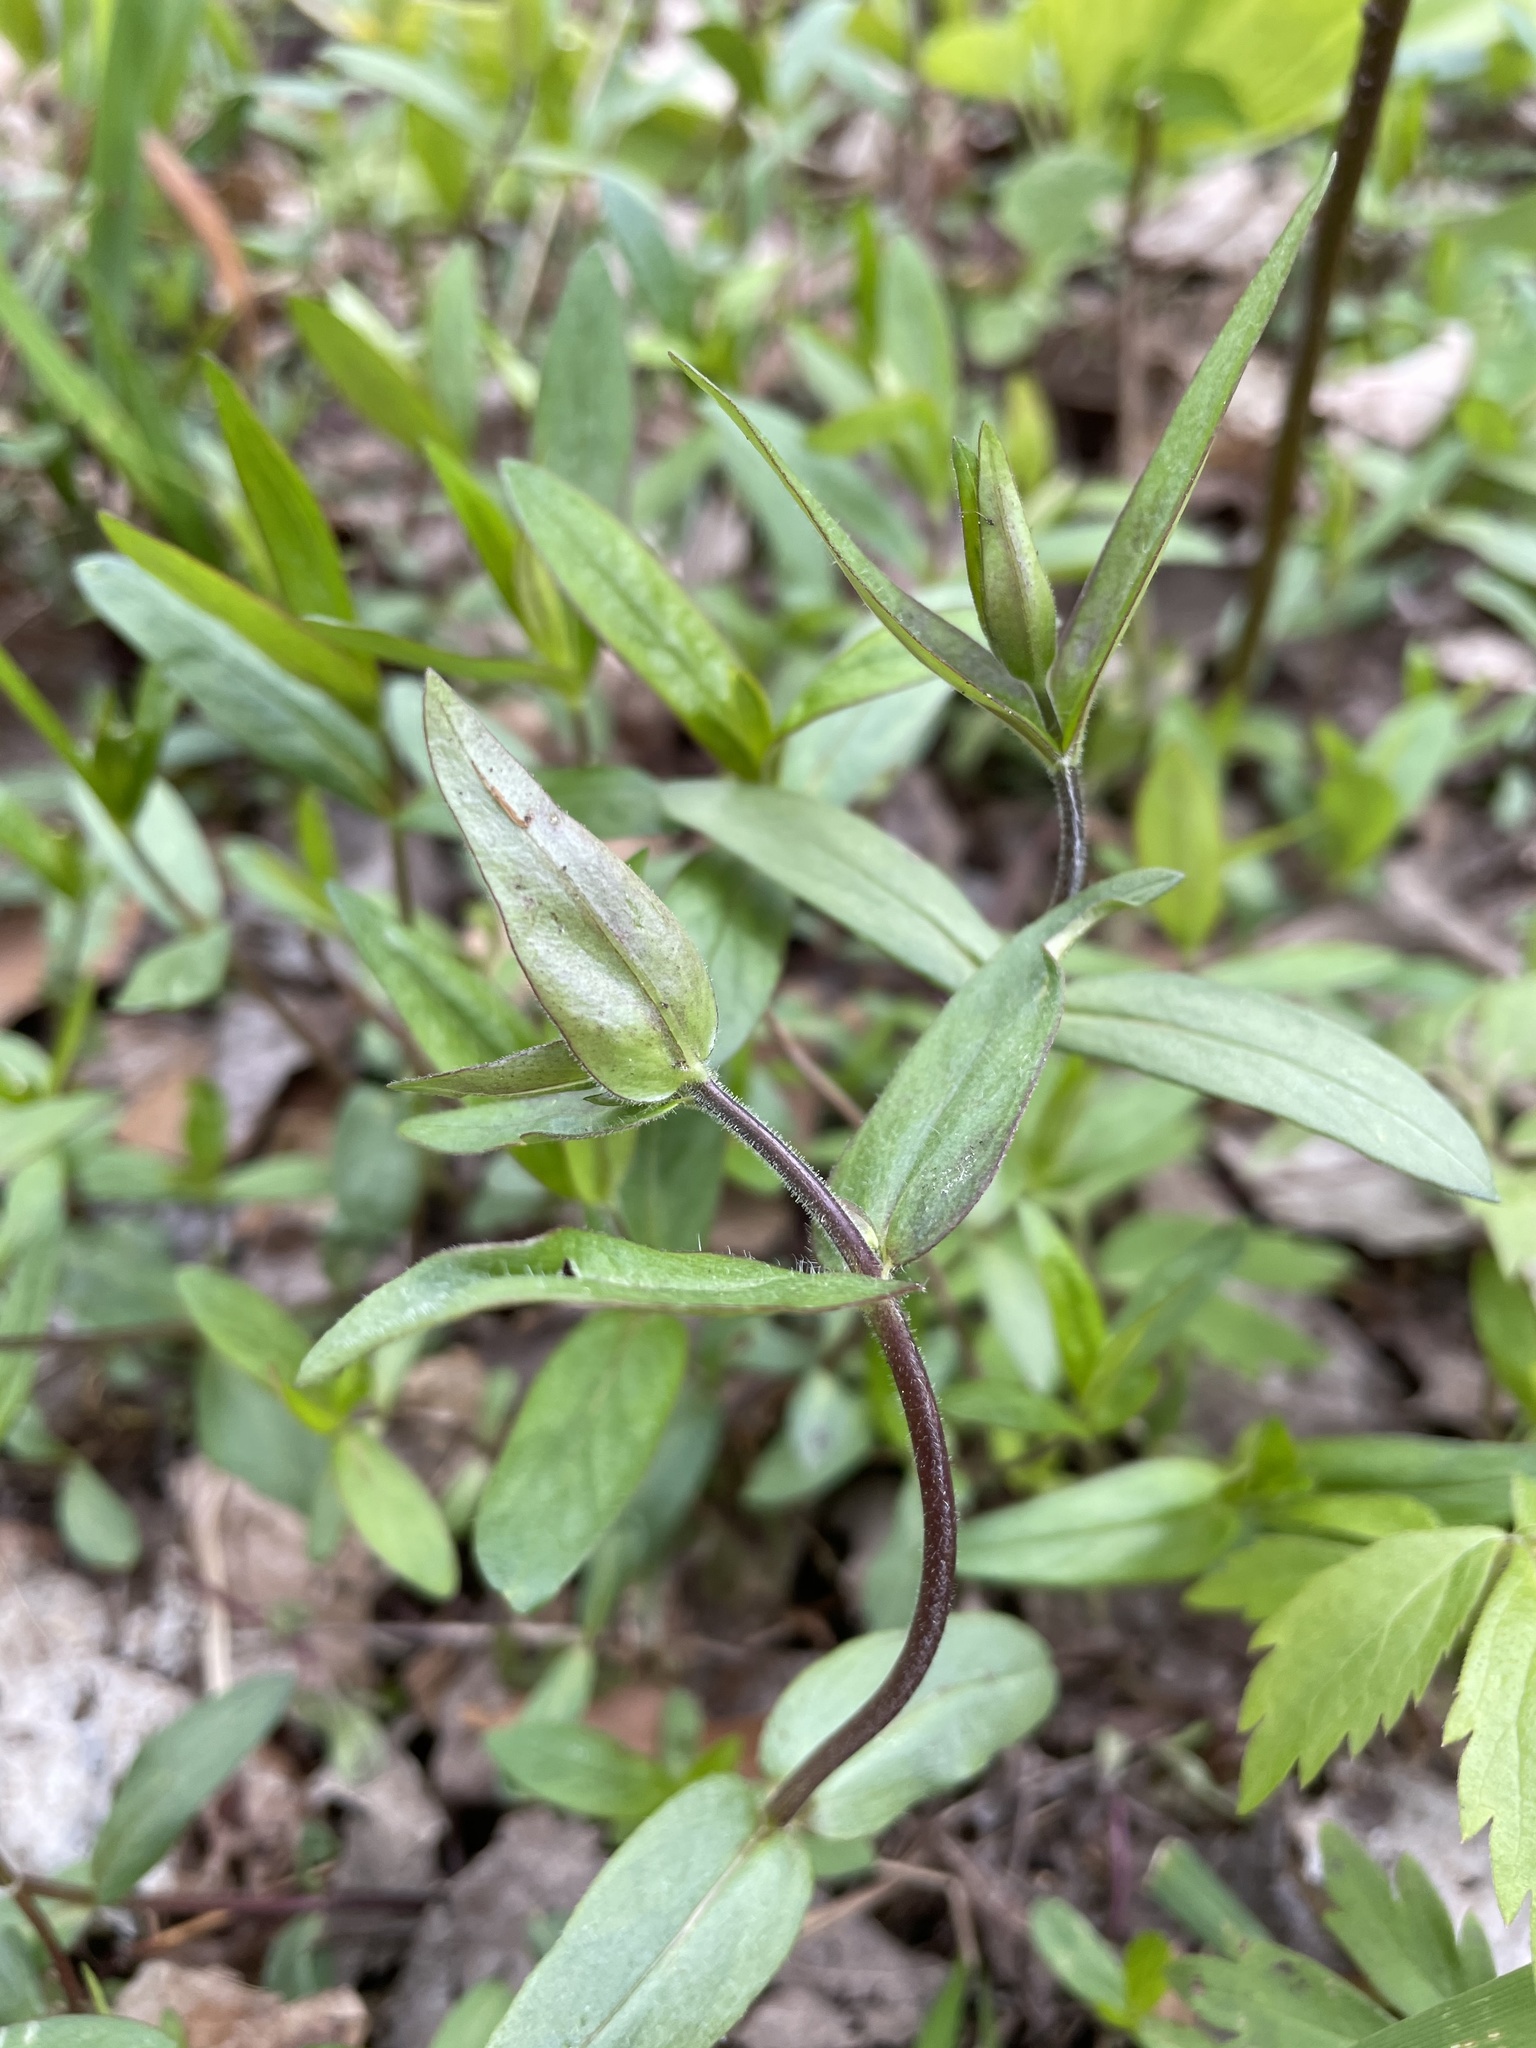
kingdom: Plantae
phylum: Tracheophyta
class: Magnoliopsida
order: Ericales
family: Polemoniaceae
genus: Phlox
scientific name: Phlox divaricata
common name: Blue phlox
